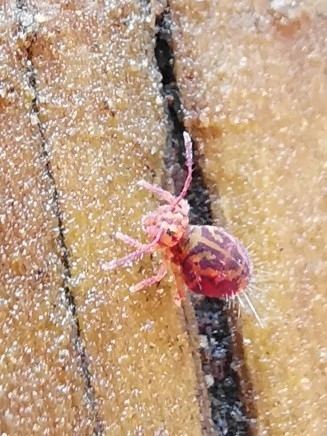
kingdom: Animalia
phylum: Arthropoda
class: Collembola
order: Symphypleona
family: Dicyrtomidae
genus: Dicyrtomina
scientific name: Dicyrtomina ornata
